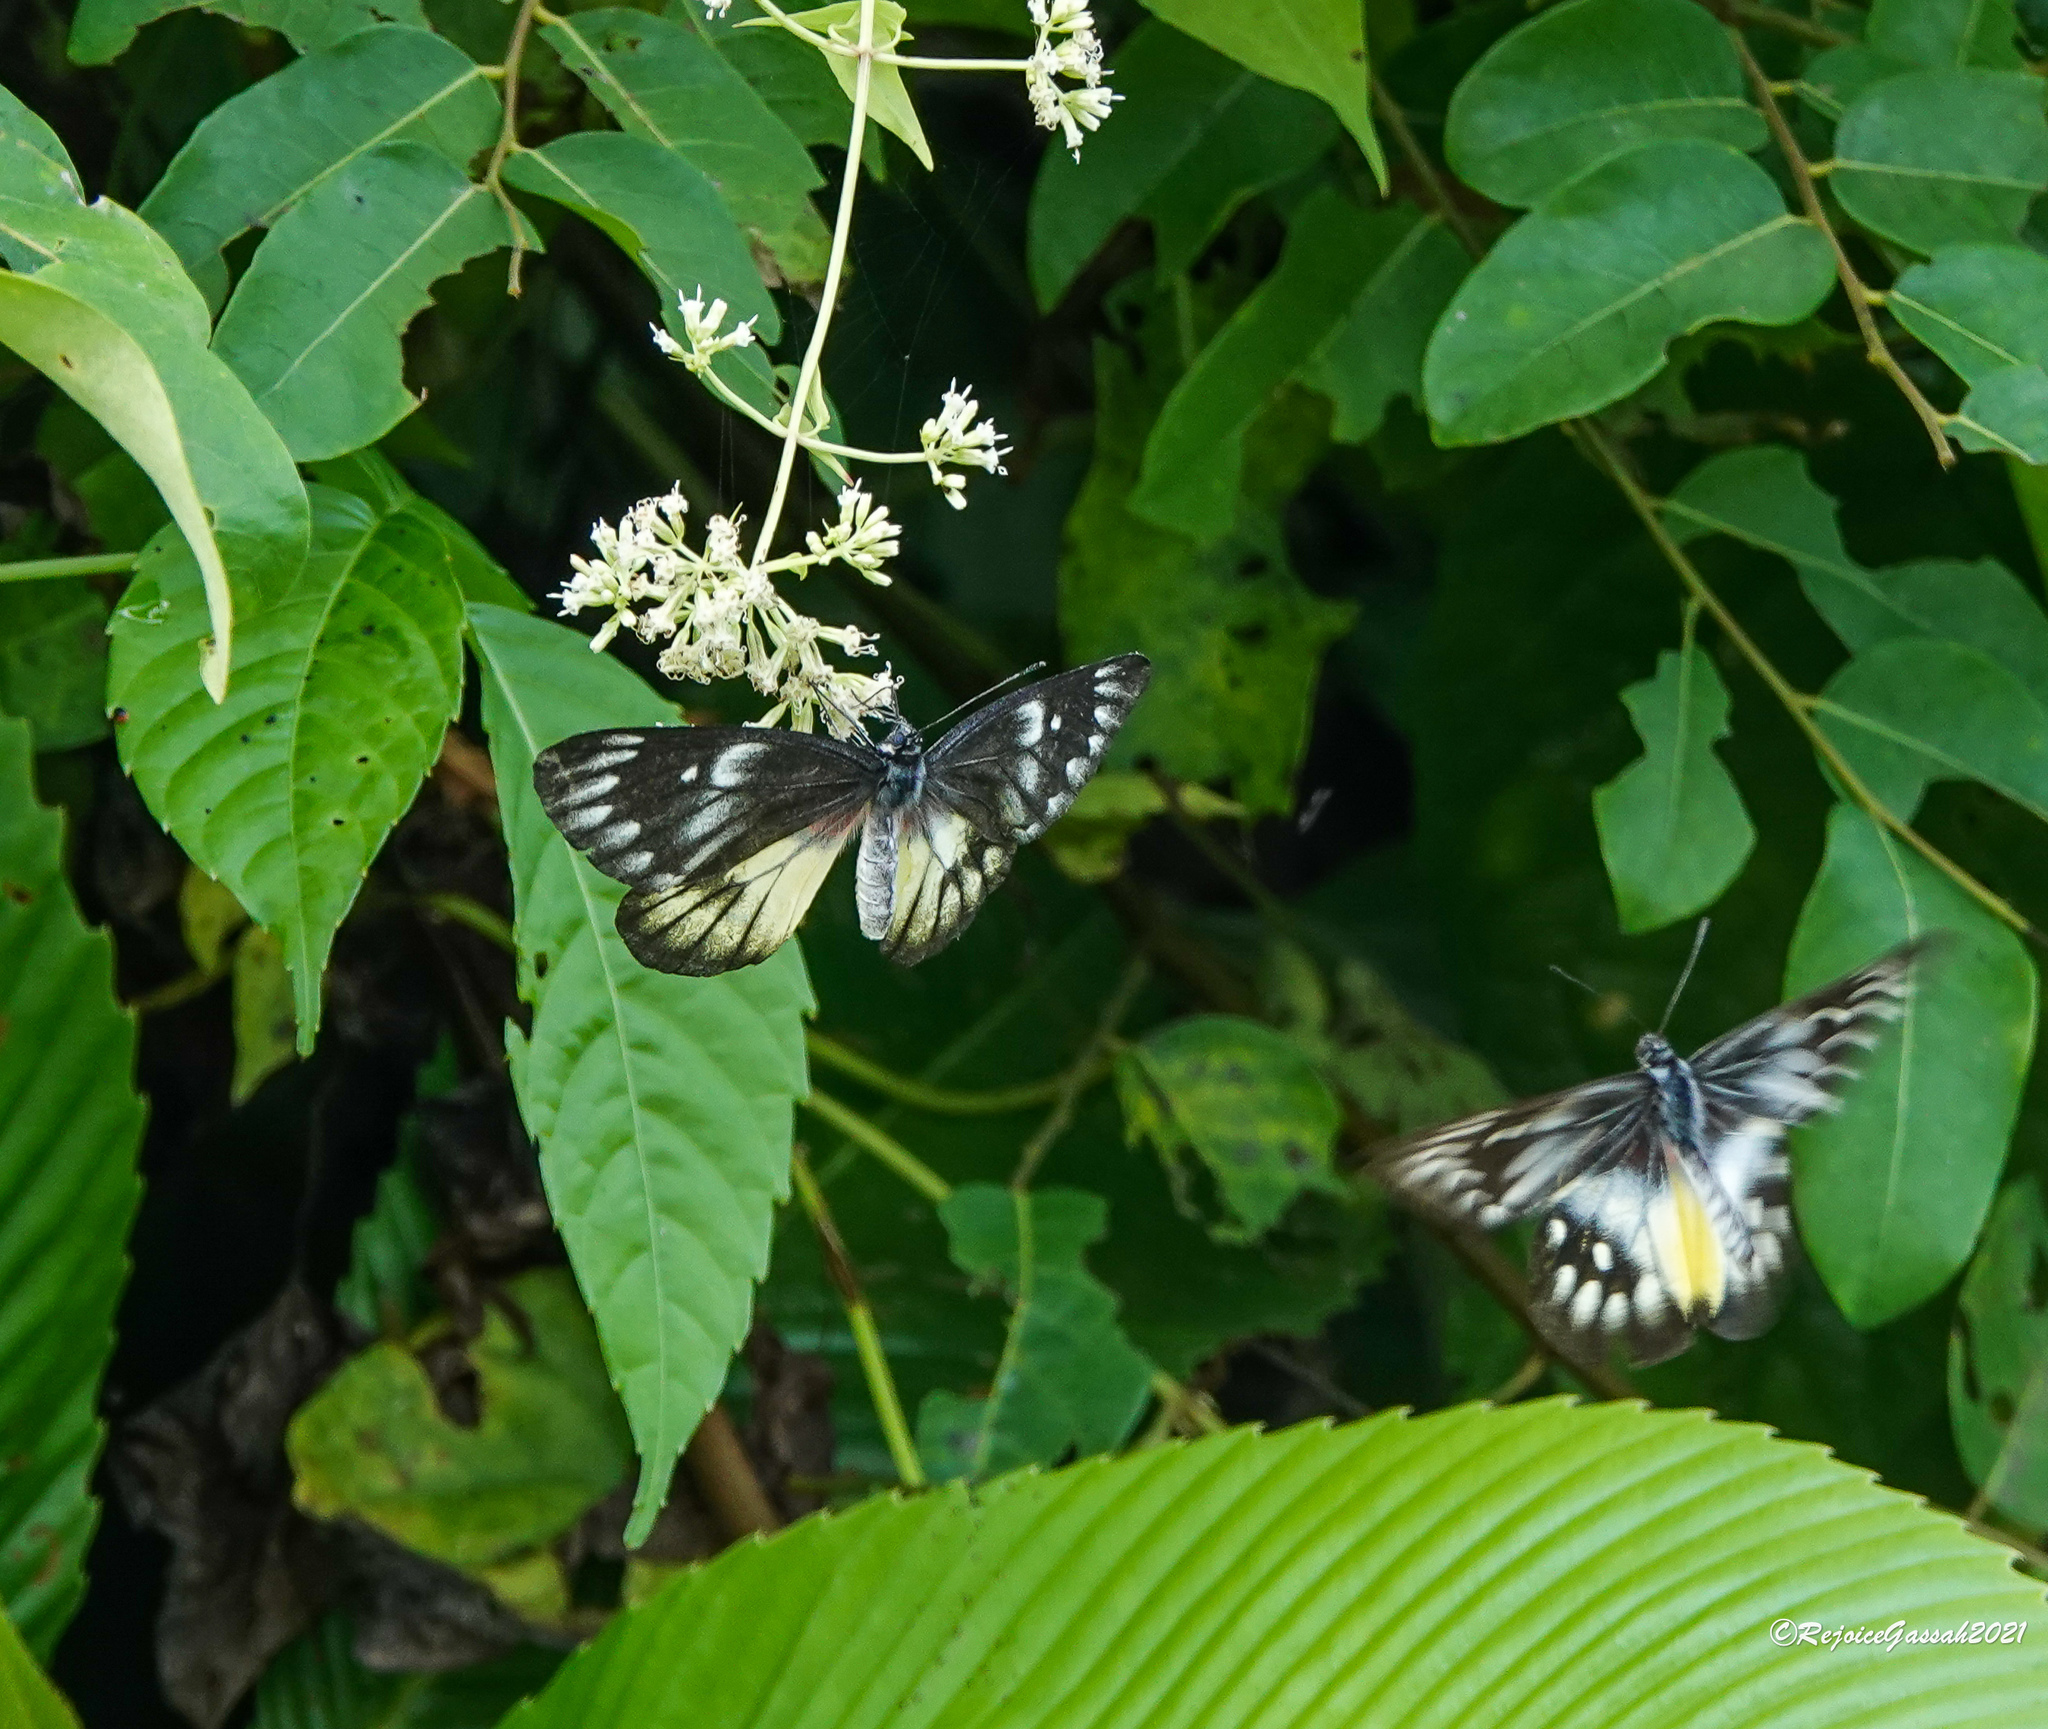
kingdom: Animalia
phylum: Arthropoda
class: Insecta
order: Lepidoptera
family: Pieridae
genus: Delias
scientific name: Delias pasithoe
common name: Red-base jezebel
